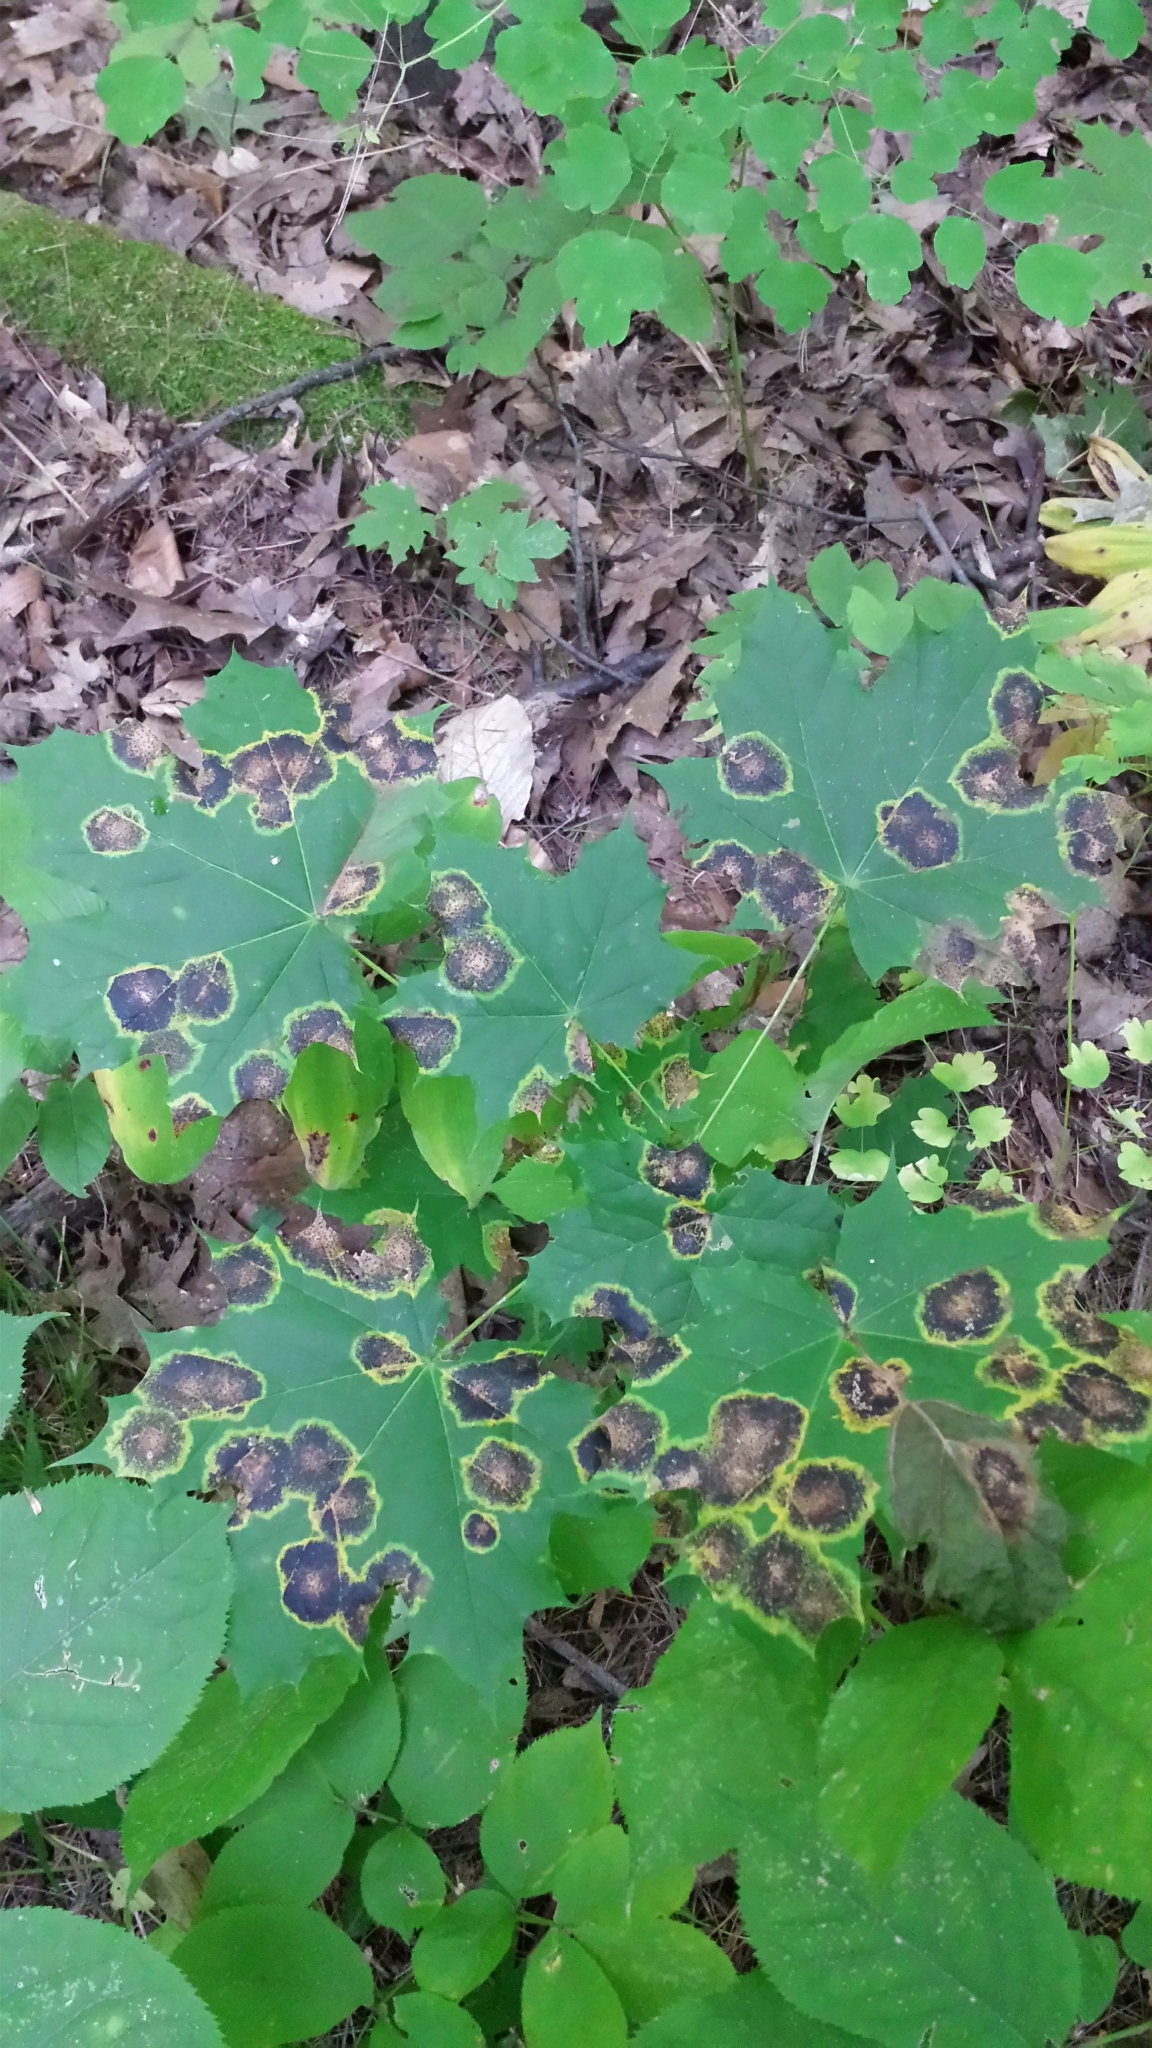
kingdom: Fungi
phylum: Ascomycota
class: Leotiomycetes
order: Rhytismatales
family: Rhytismataceae
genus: Rhytisma
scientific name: Rhytisma acerinum
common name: European tar spot
